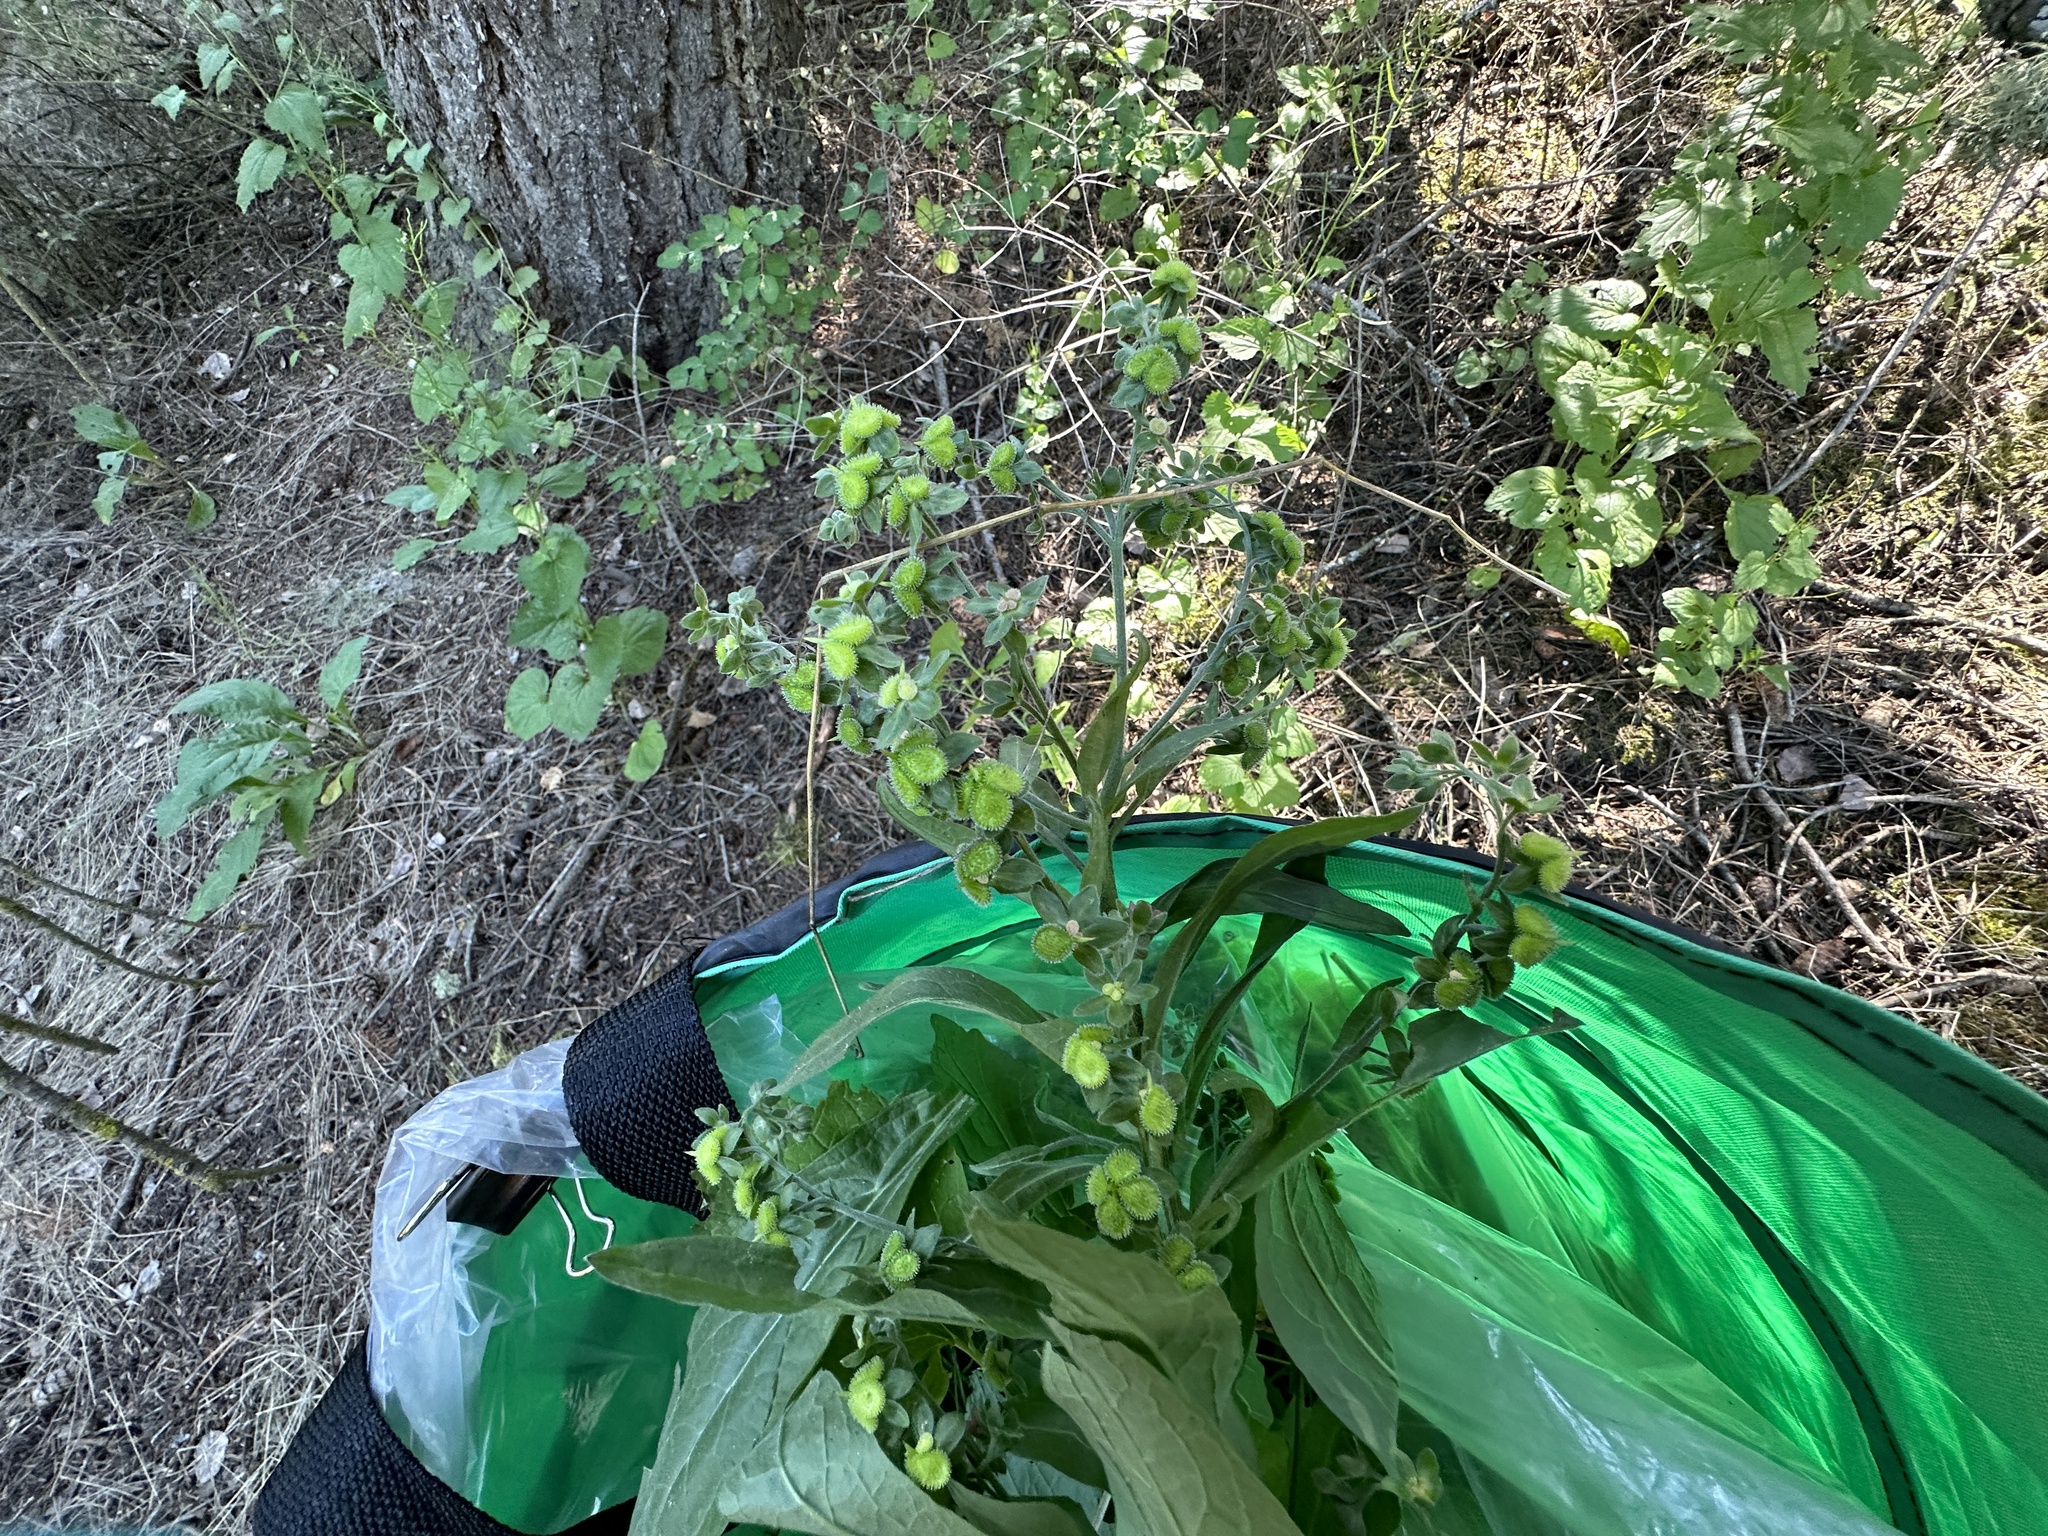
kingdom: Plantae
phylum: Tracheophyta
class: Magnoliopsida
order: Boraginales
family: Boraginaceae
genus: Cynoglossum
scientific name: Cynoglossum officinale
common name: Hound's-tongue
